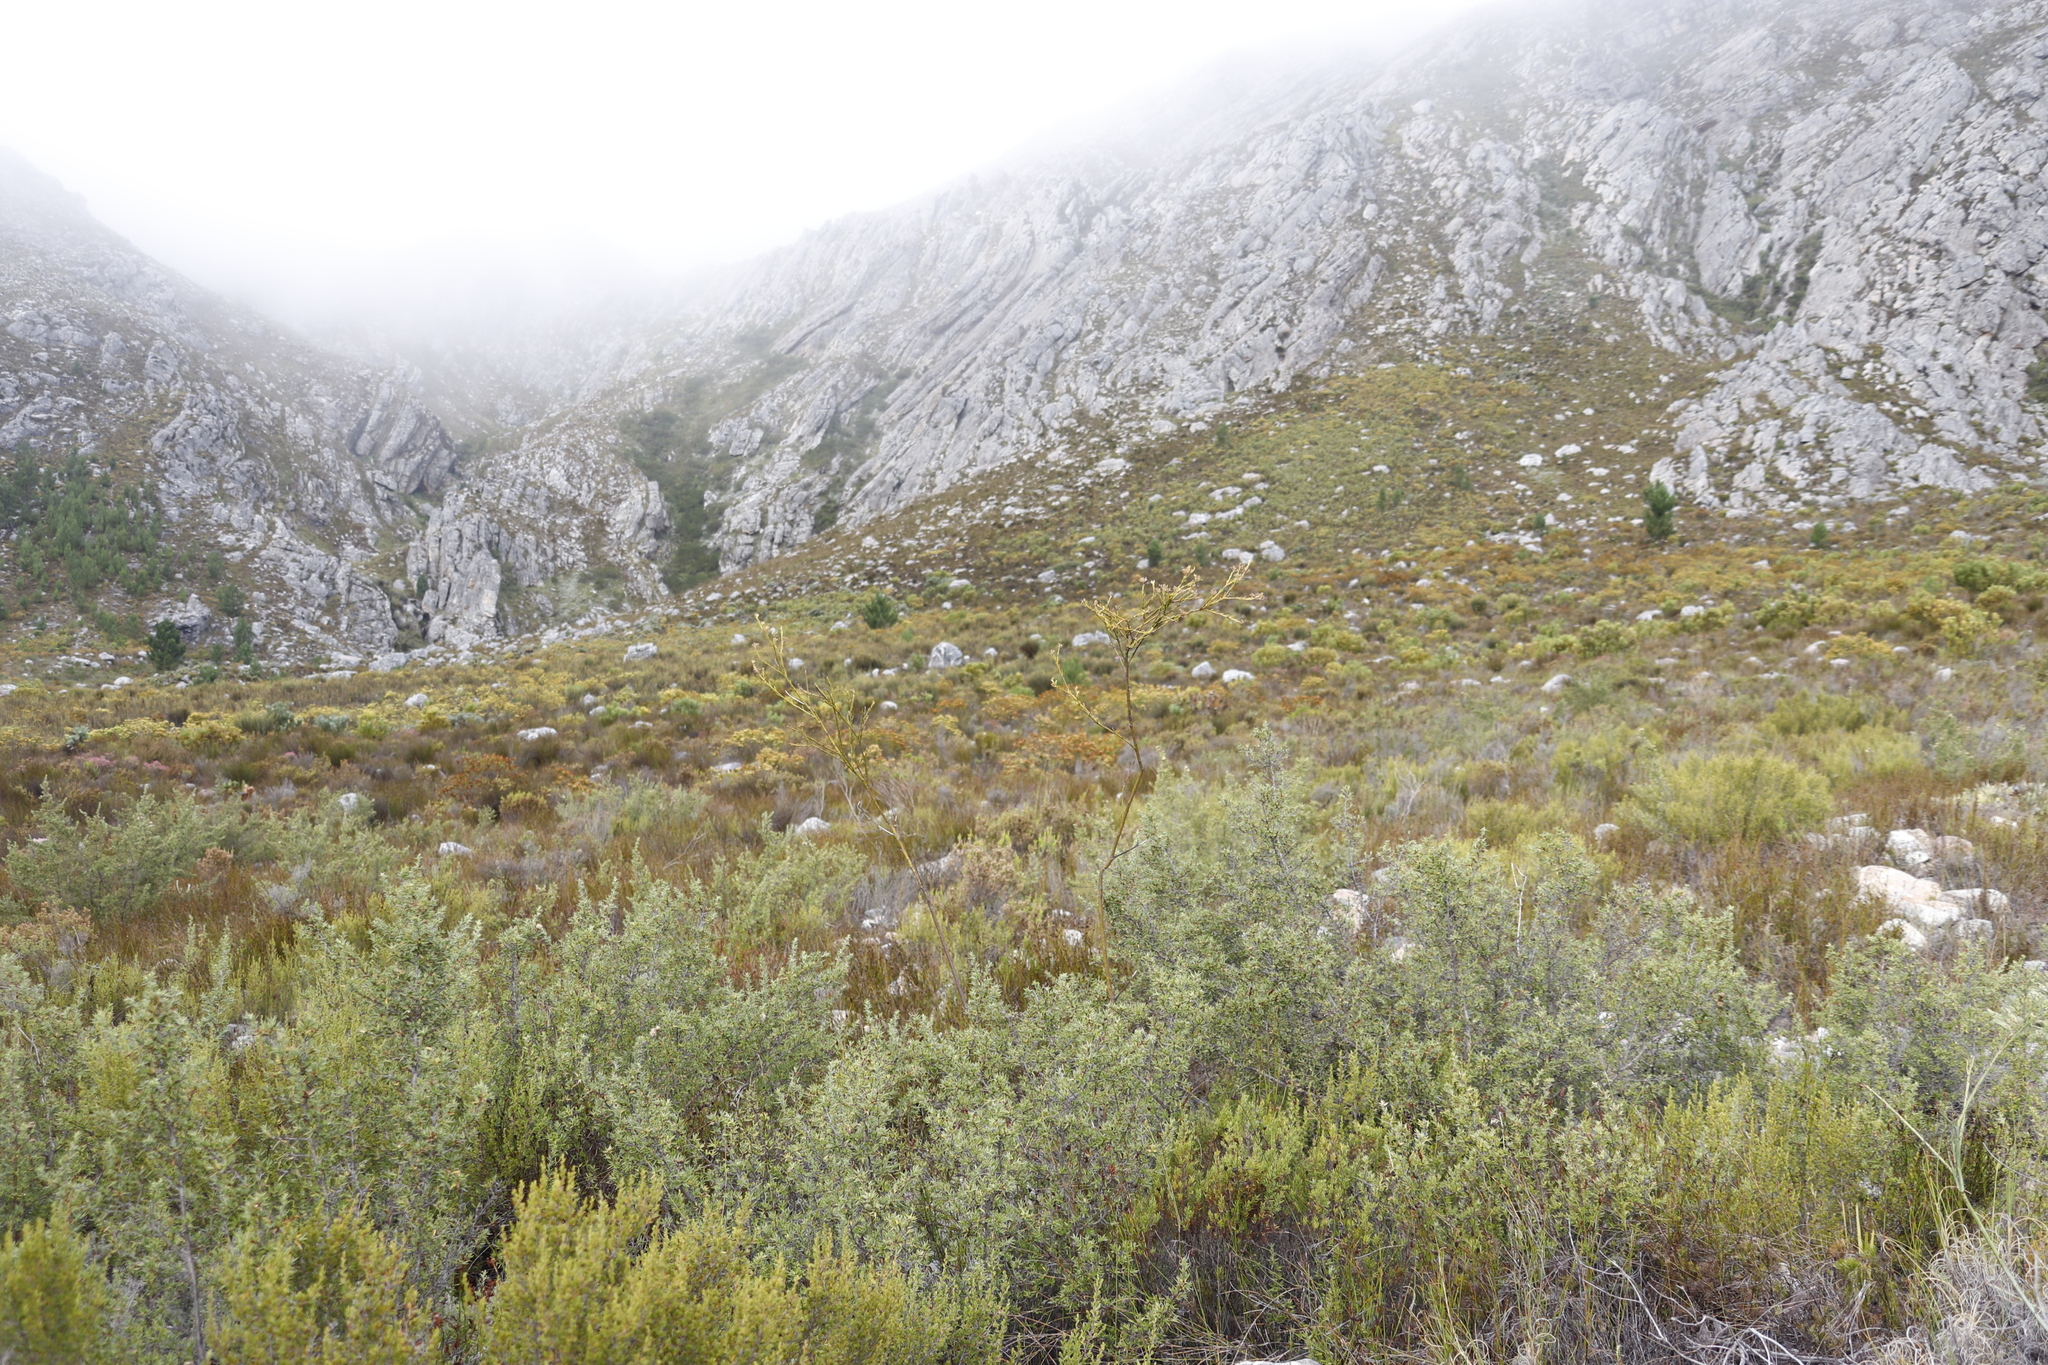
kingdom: Plantae
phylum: Tracheophyta
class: Magnoliopsida
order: Rosales
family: Rosaceae
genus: Cliffortia
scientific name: Cliffortia ruscifolia
